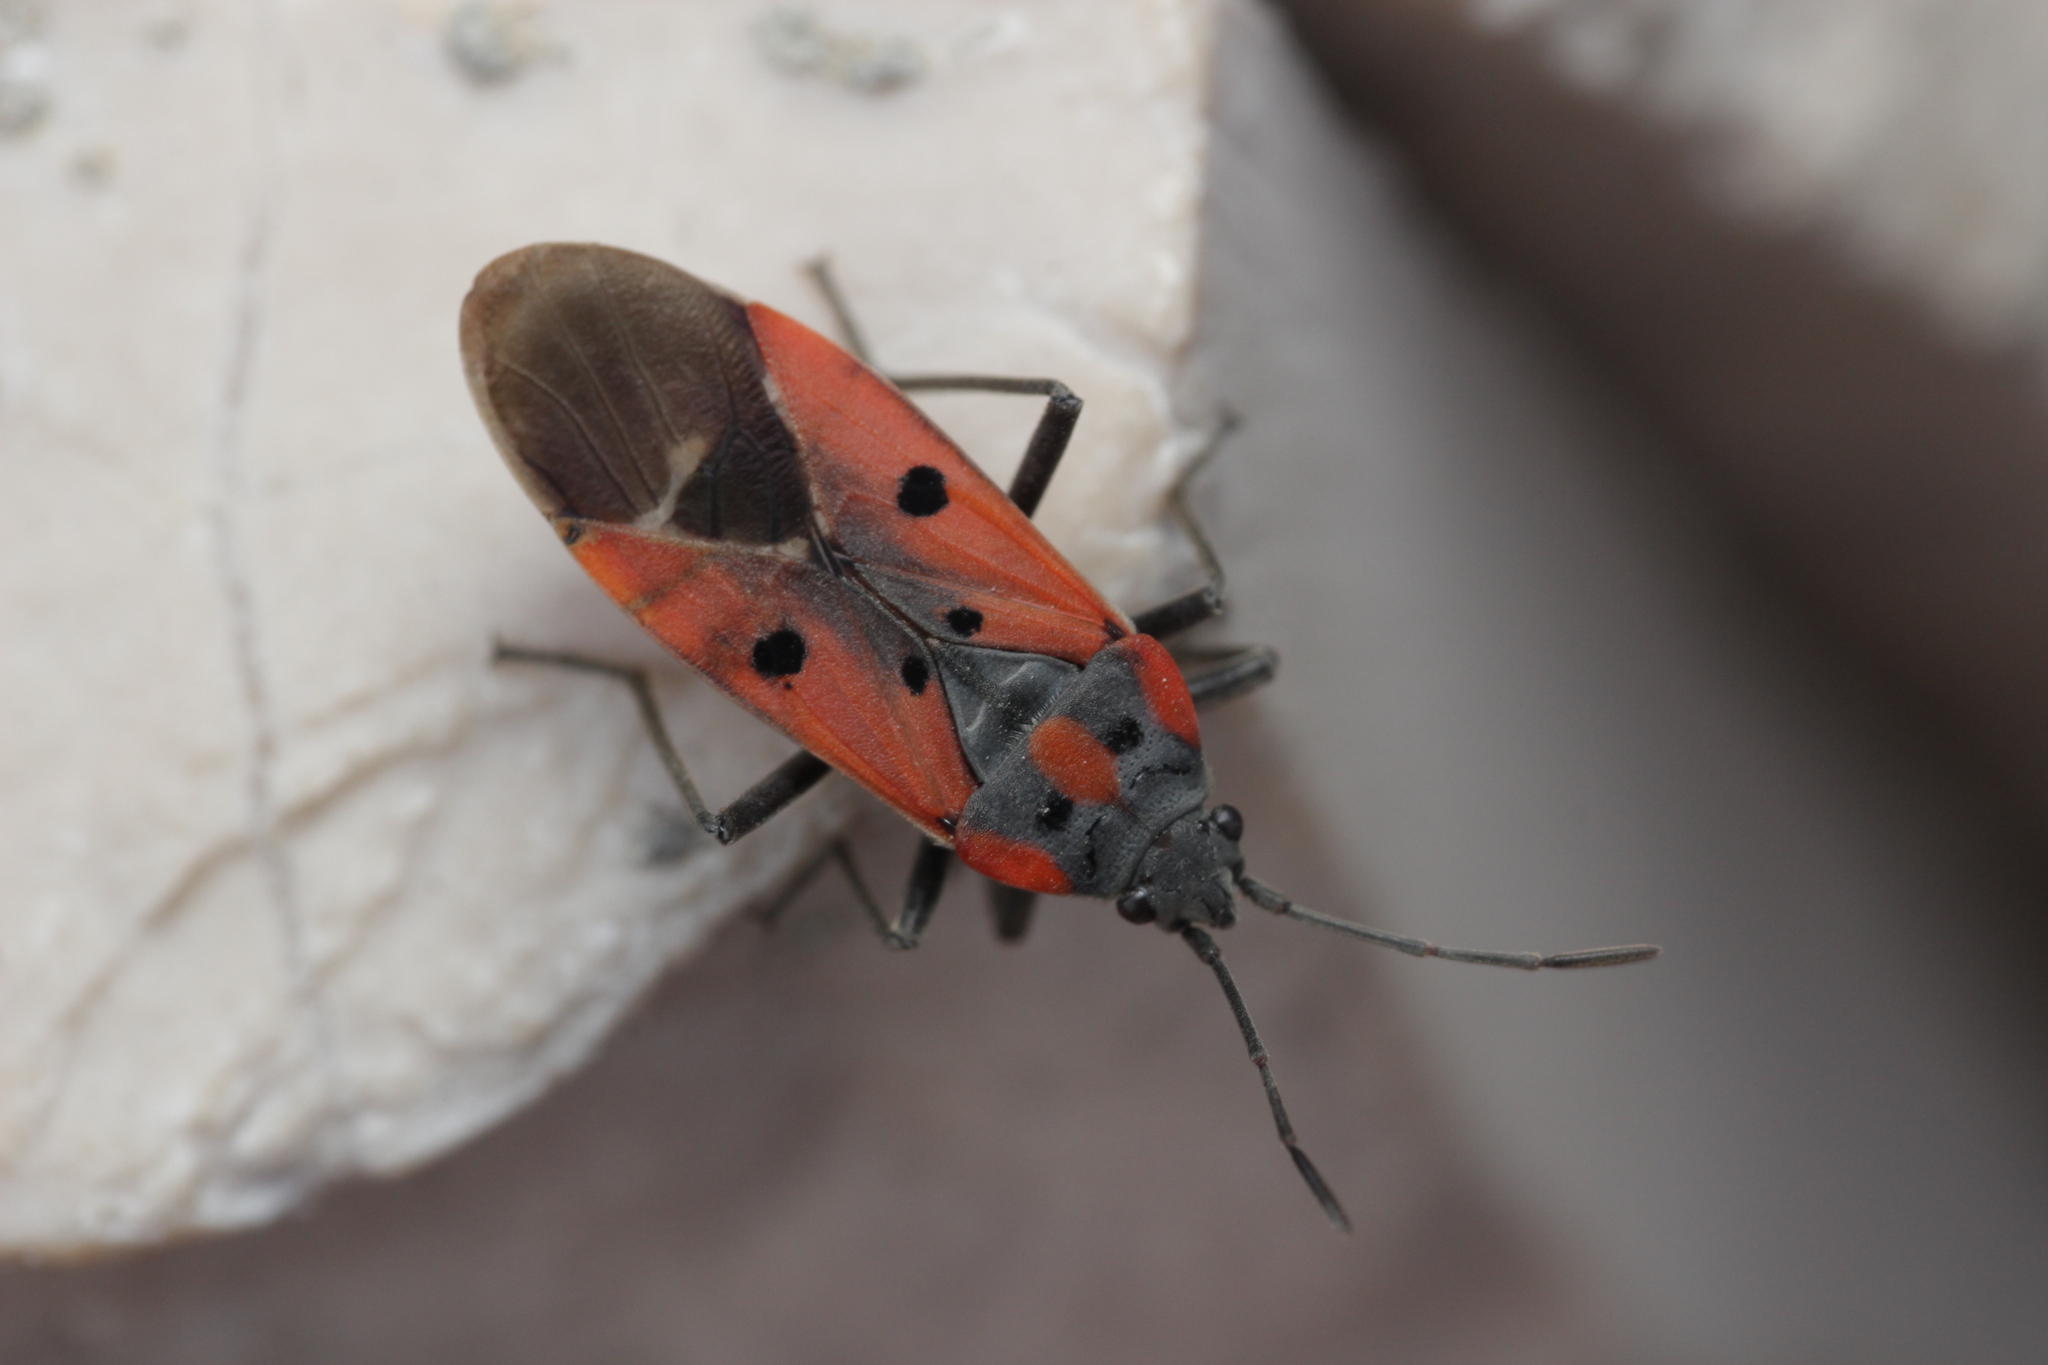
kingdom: Animalia
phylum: Arthropoda
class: Insecta
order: Hemiptera
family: Lygaeidae
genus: Lygaeus
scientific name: Lygaeus creticus
